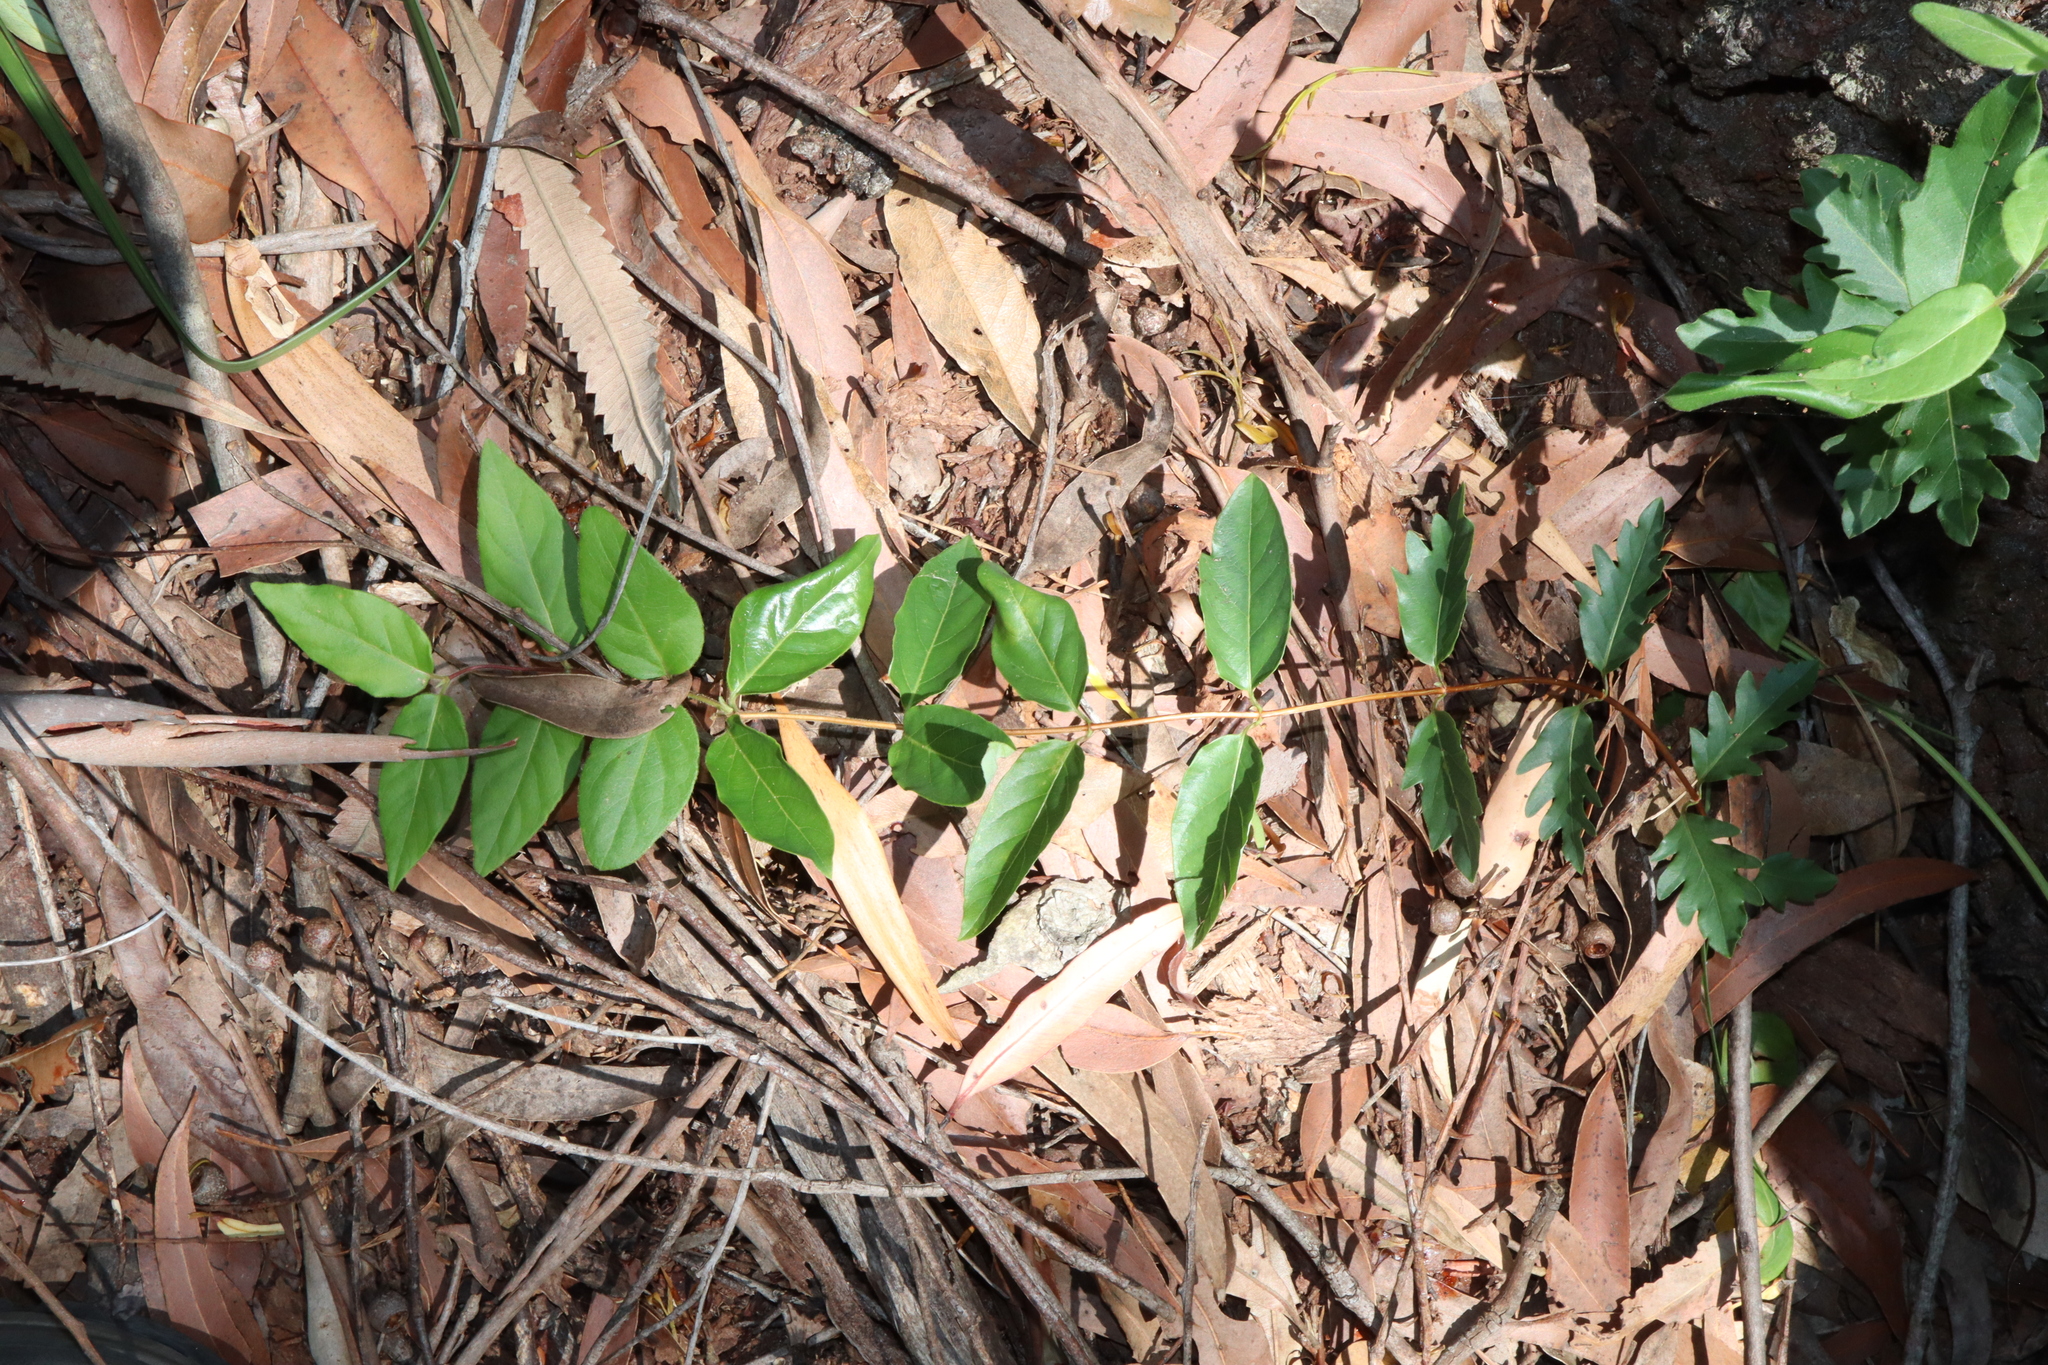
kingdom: Plantae
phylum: Tracheophyta
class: Magnoliopsida
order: Dipsacales
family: Caprifoliaceae
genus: Lonicera
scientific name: Lonicera japonica
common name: Japanese honeysuckle
